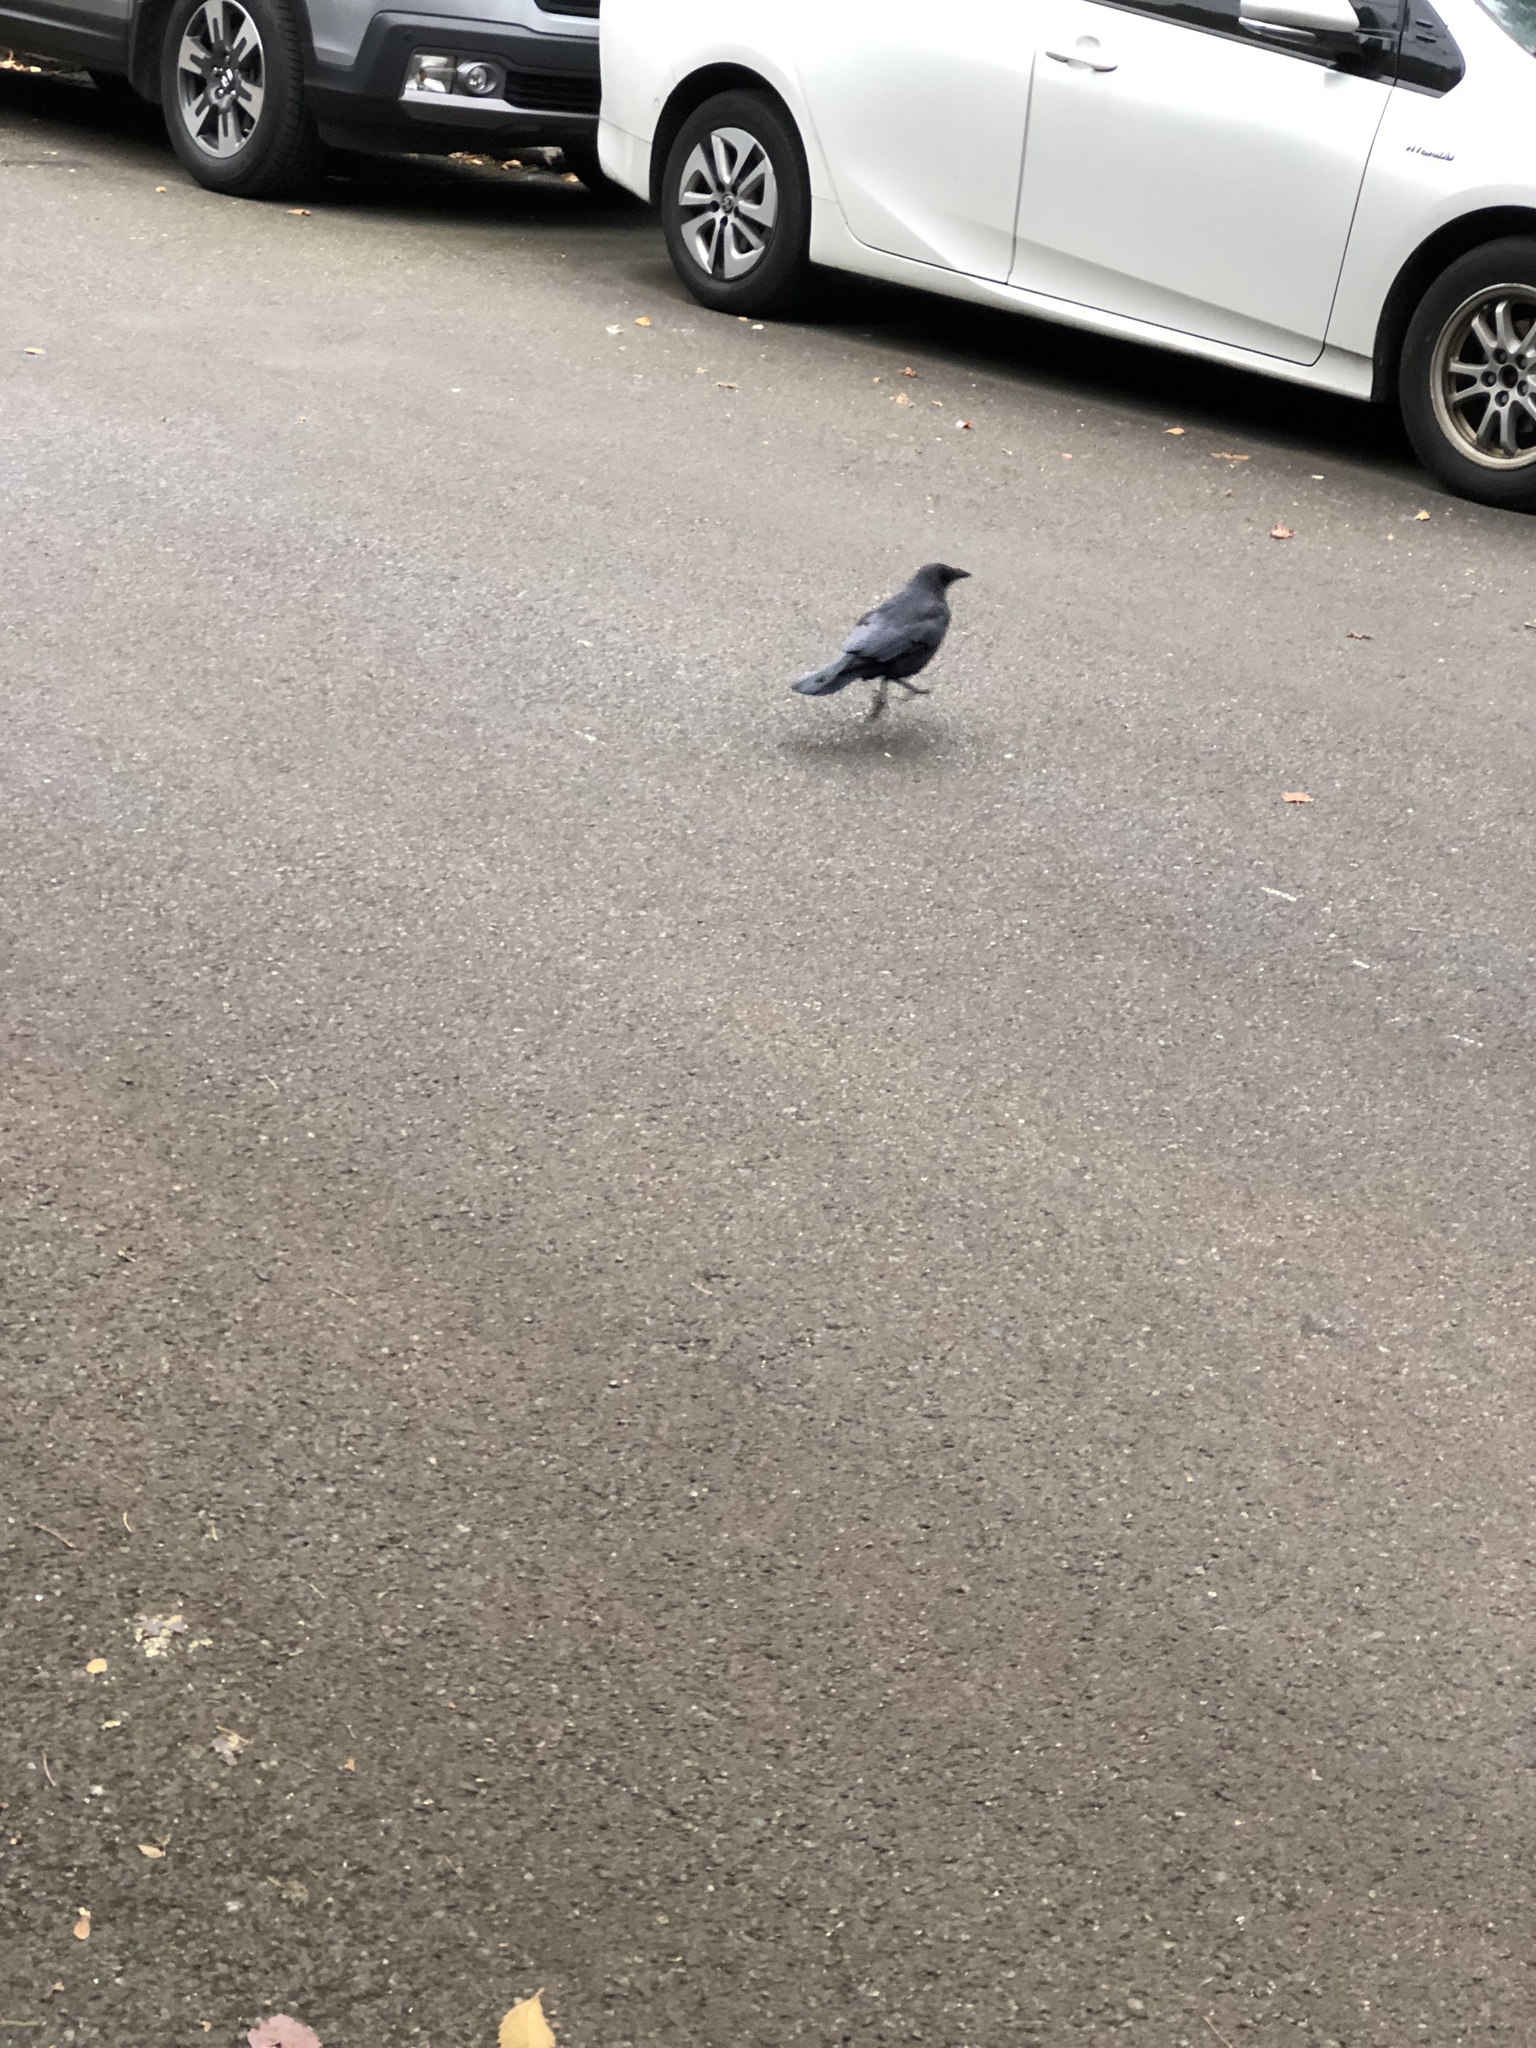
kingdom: Animalia
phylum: Chordata
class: Aves
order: Passeriformes
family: Corvidae
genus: Corvus
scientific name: Corvus brachyrhynchos
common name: American crow
